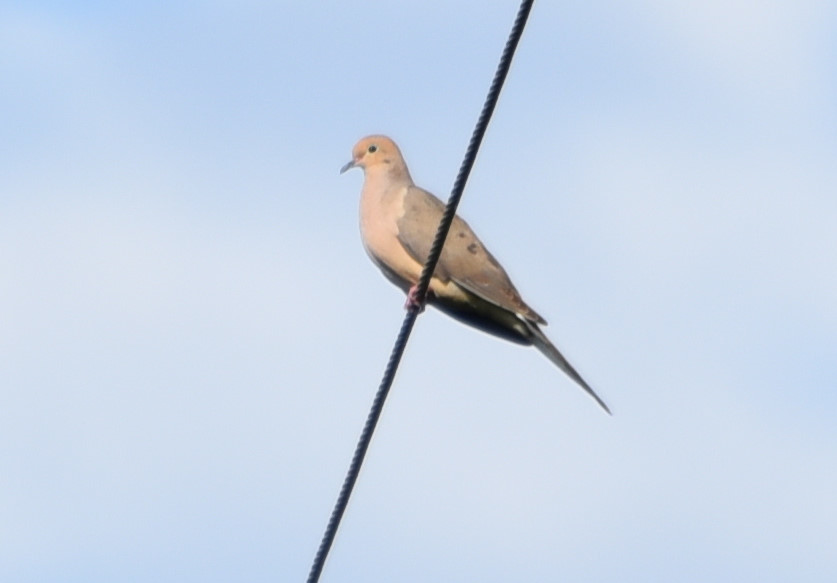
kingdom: Animalia
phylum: Chordata
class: Aves
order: Columbiformes
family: Columbidae
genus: Zenaida
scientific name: Zenaida macroura
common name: Mourning dove
